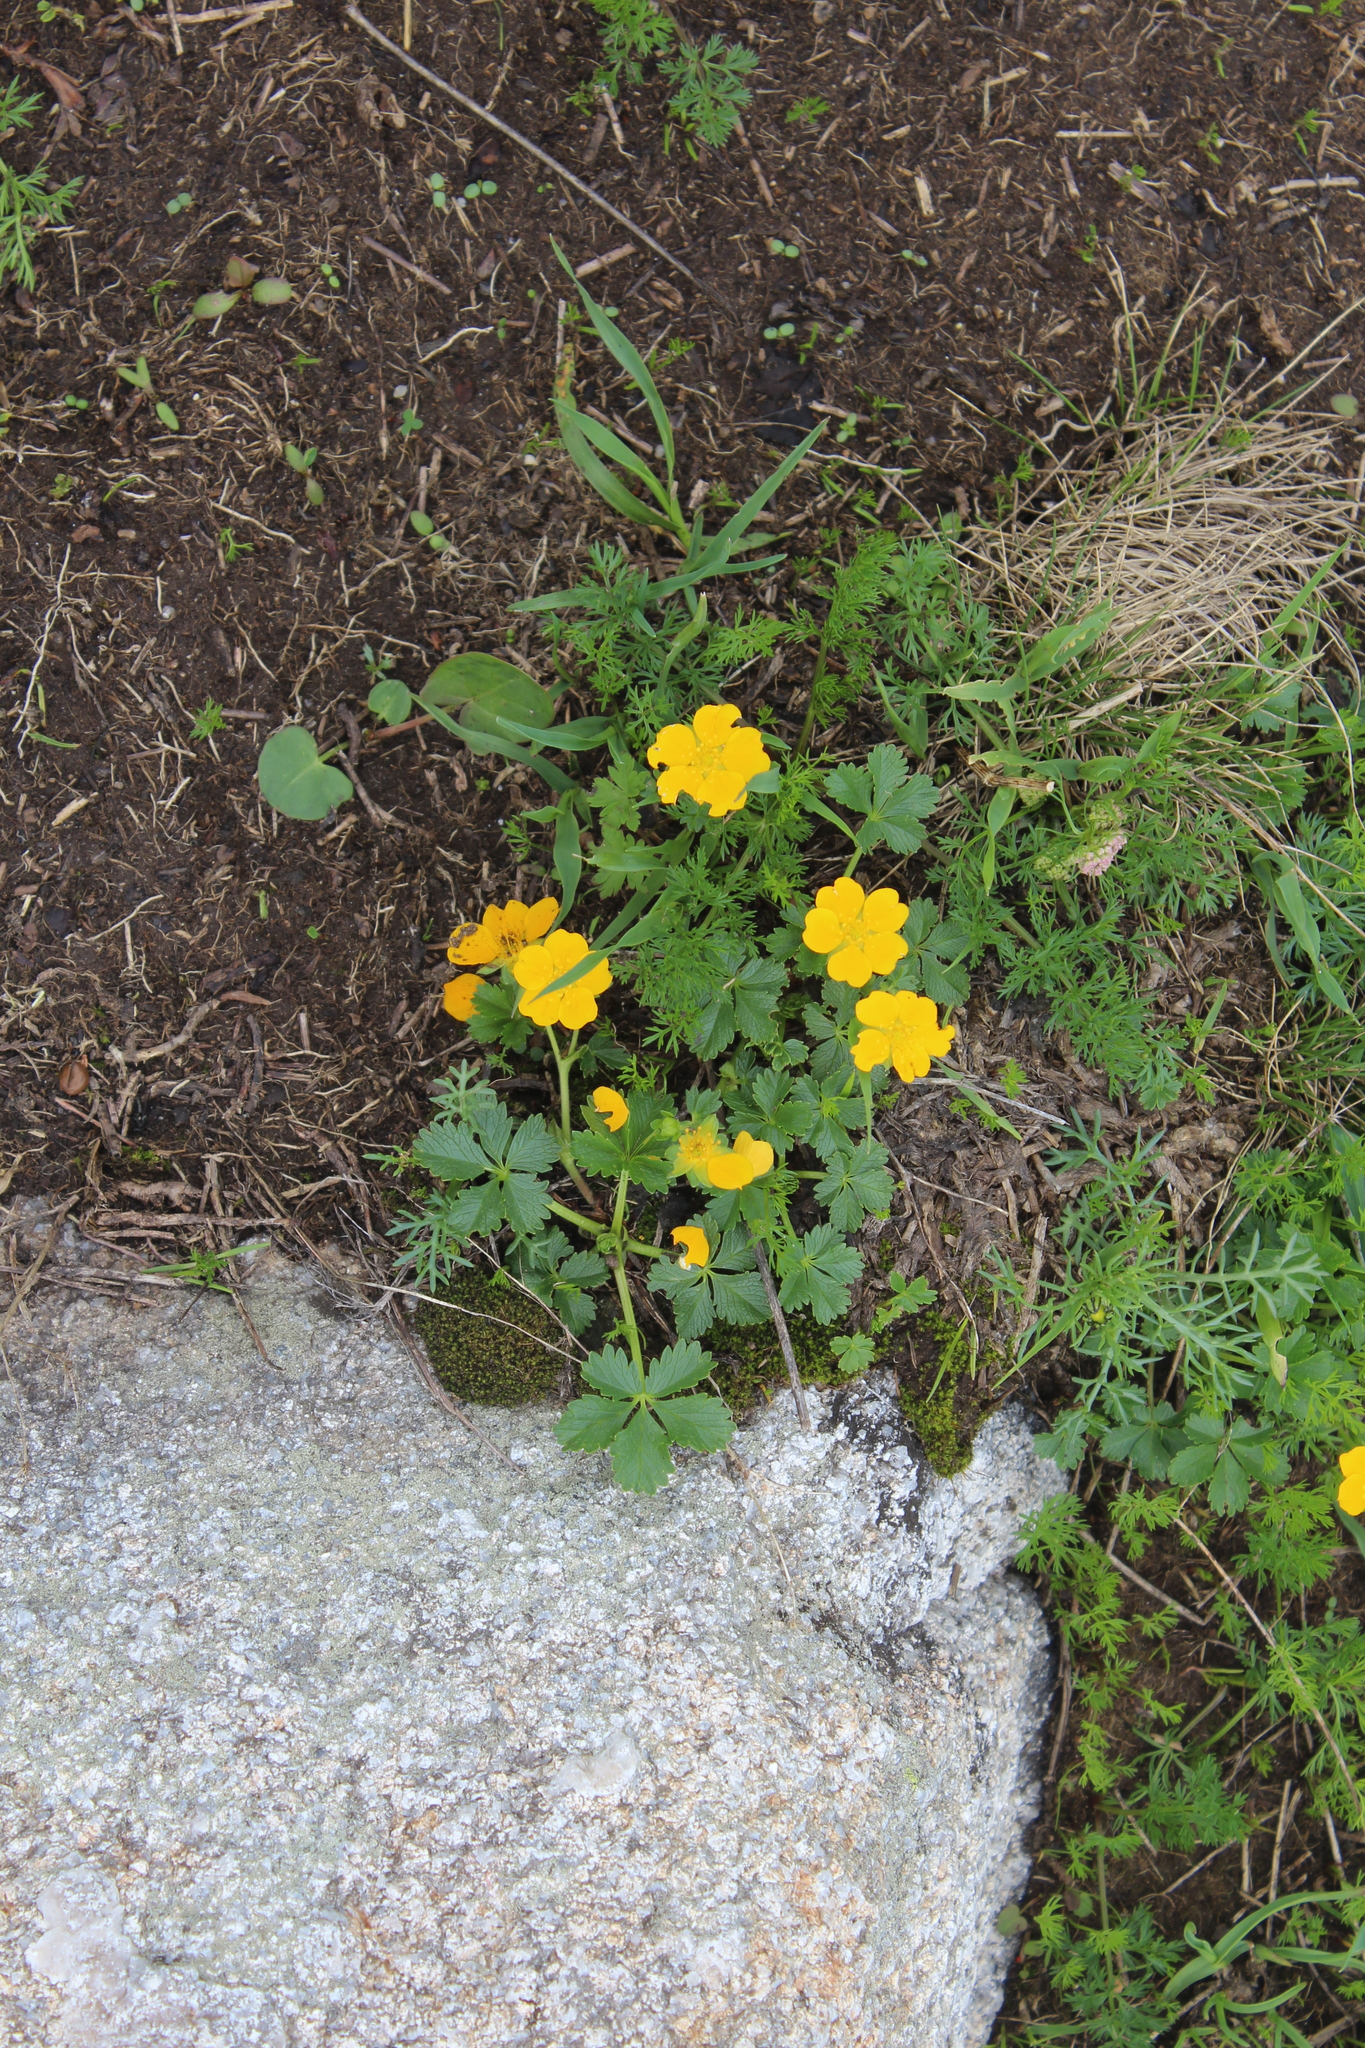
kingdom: Plantae
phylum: Tracheophyta
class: Magnoliopsida
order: Rosales
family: Rosaceae
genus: Potentilla
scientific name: Potentilla ruprechtii
